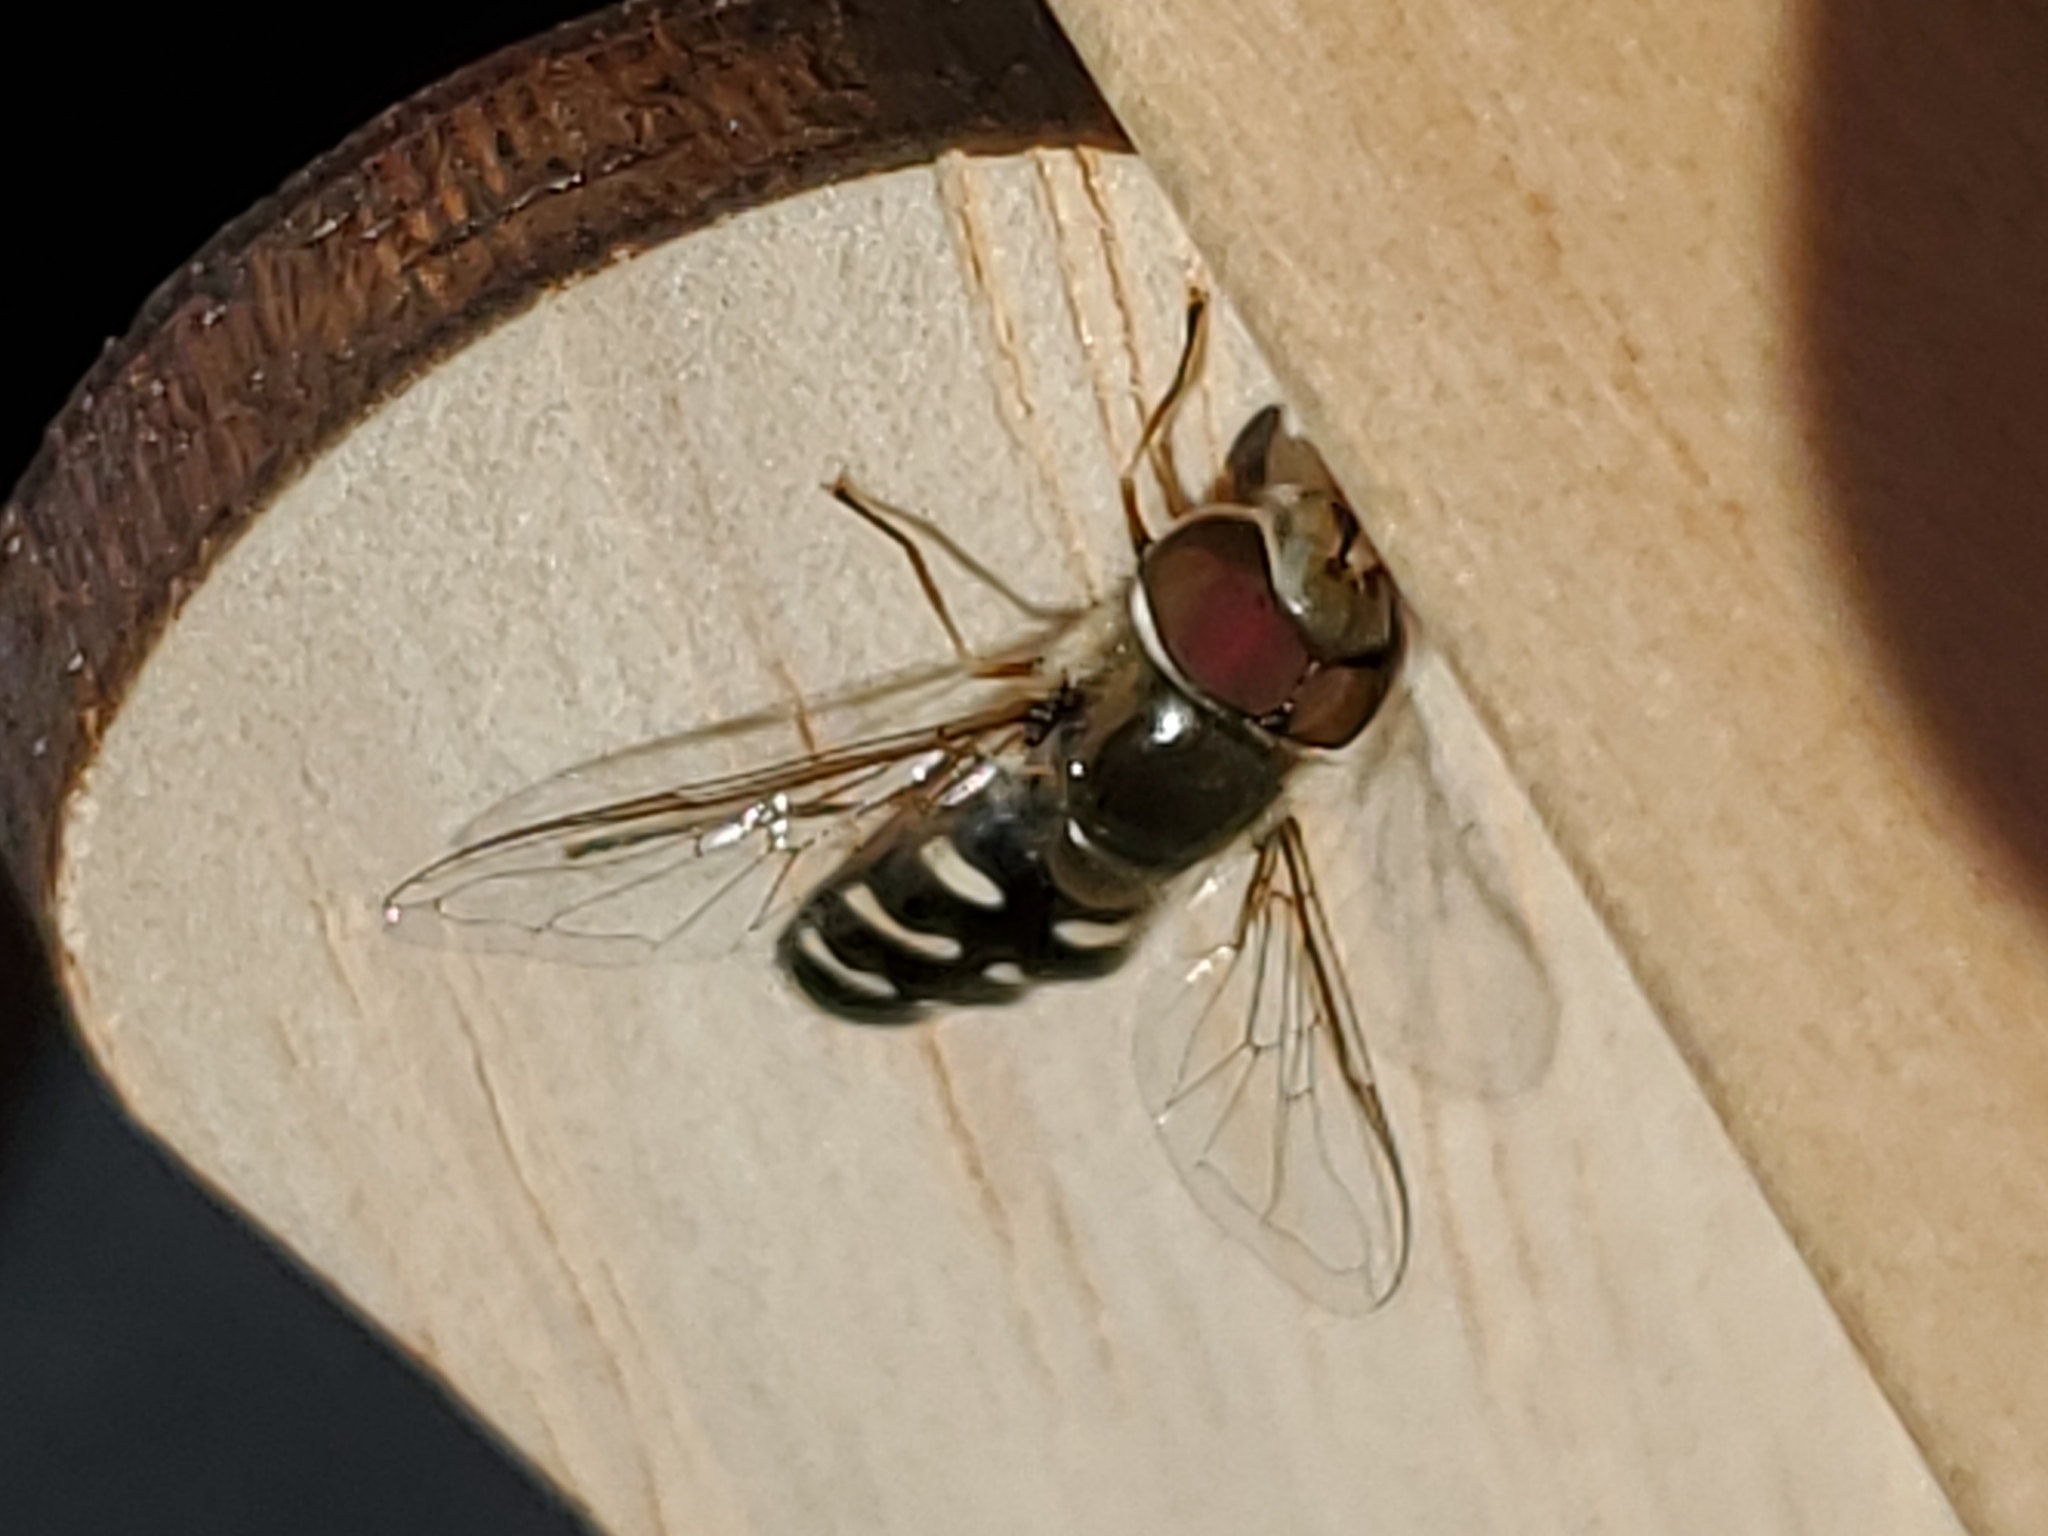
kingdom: Animalia
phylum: Arthropoda
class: Insecta
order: Diptera
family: Syrphidae
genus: Scaeva
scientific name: Scaeva affinis
